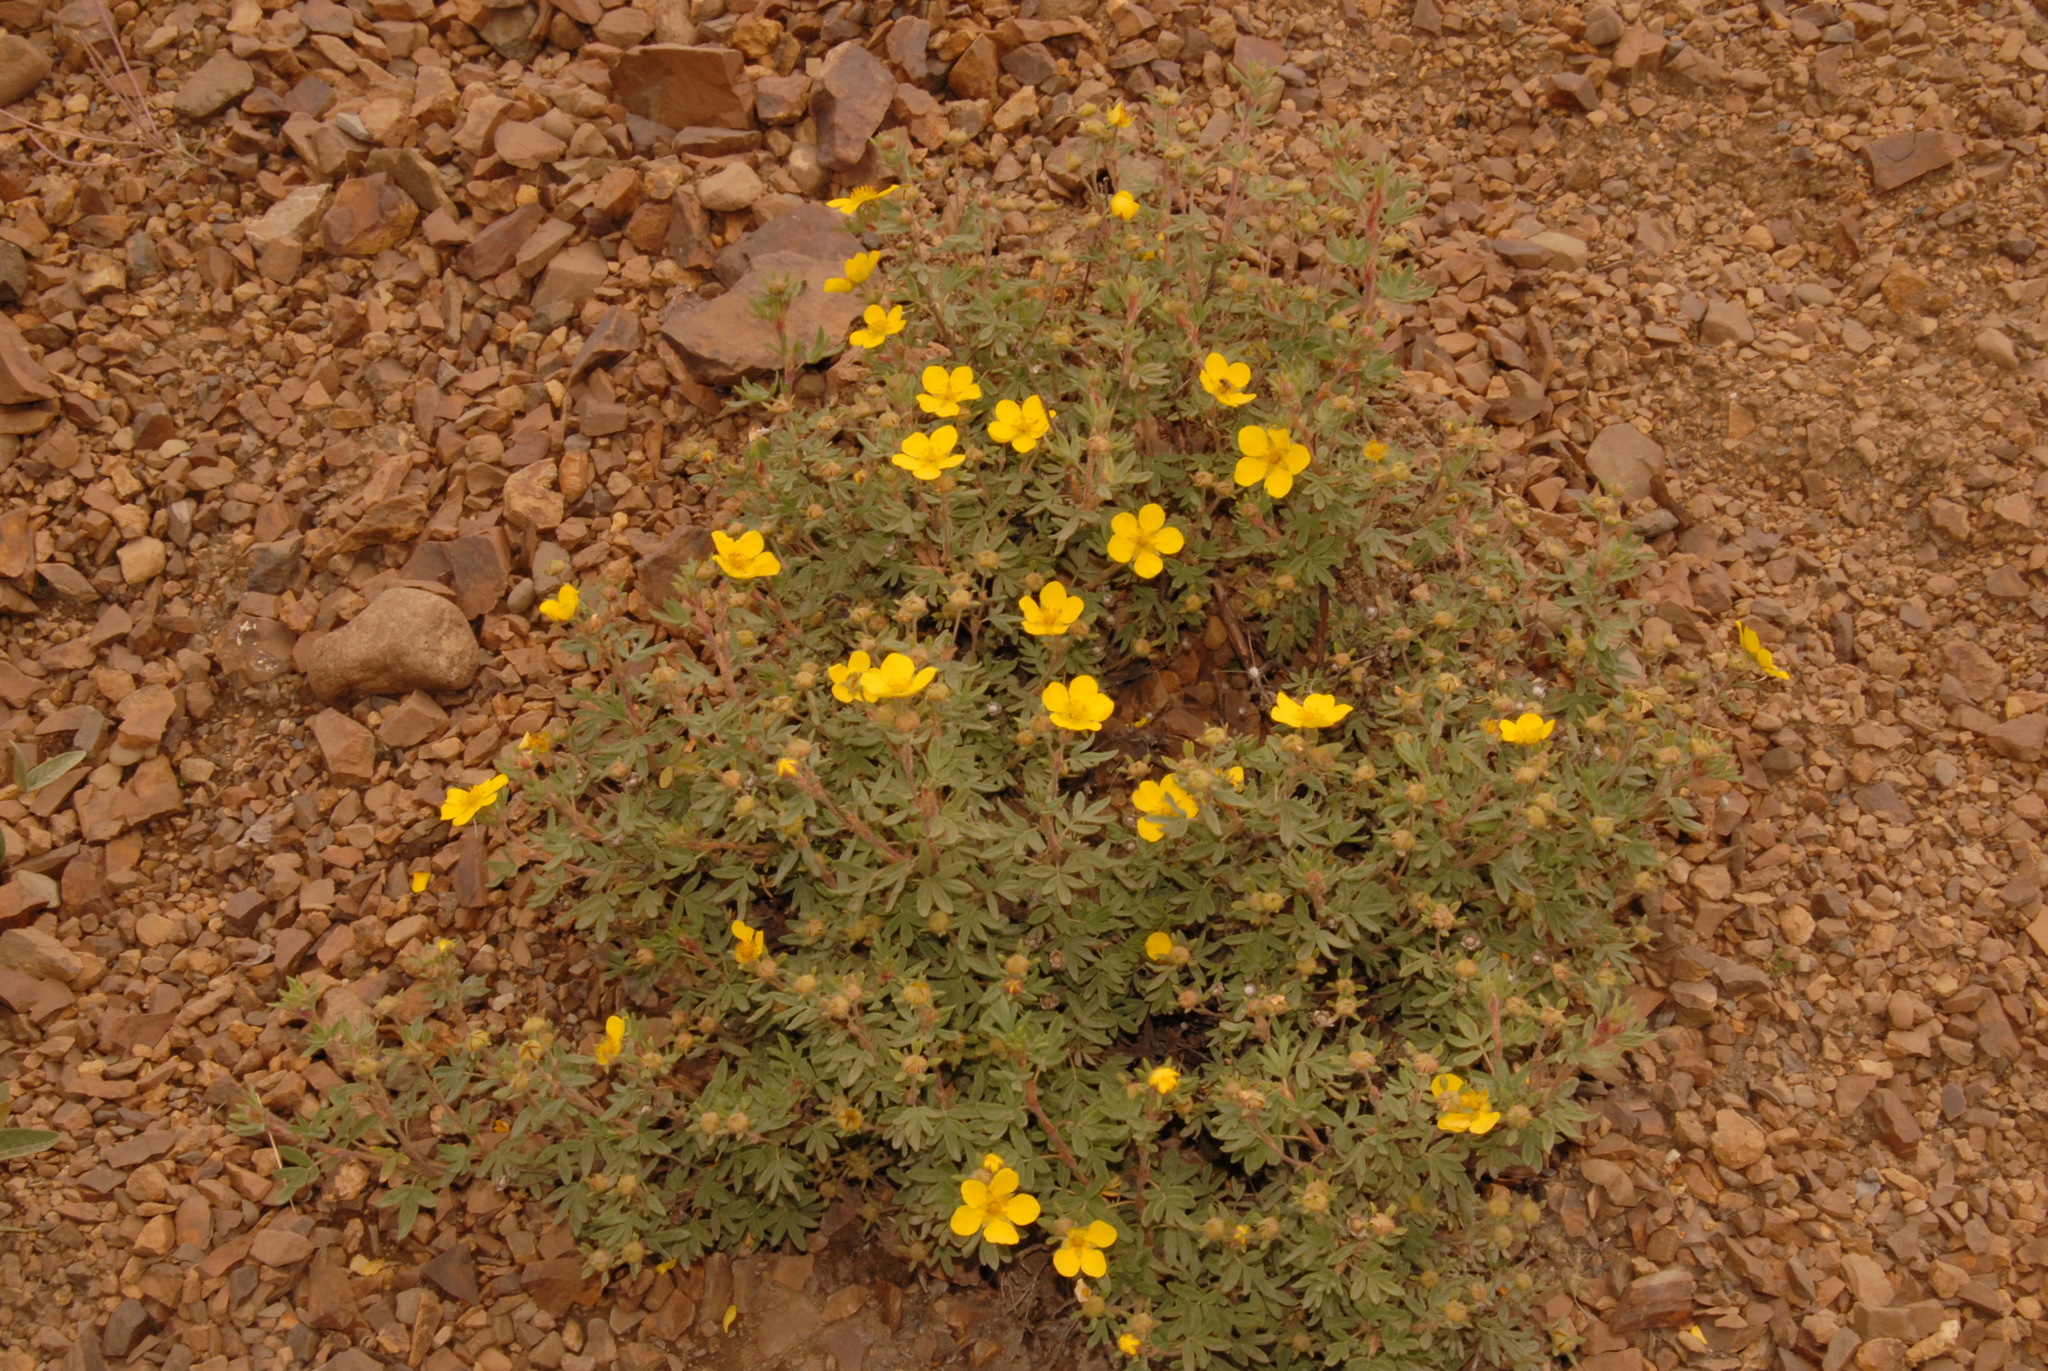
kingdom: Plantae
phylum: Tracheophyta
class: Magnoliopsida
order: Rosales
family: Rosaceae
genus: Dasiphora
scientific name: Dasiphora fruticosa
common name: Shrubby cinquefoil
